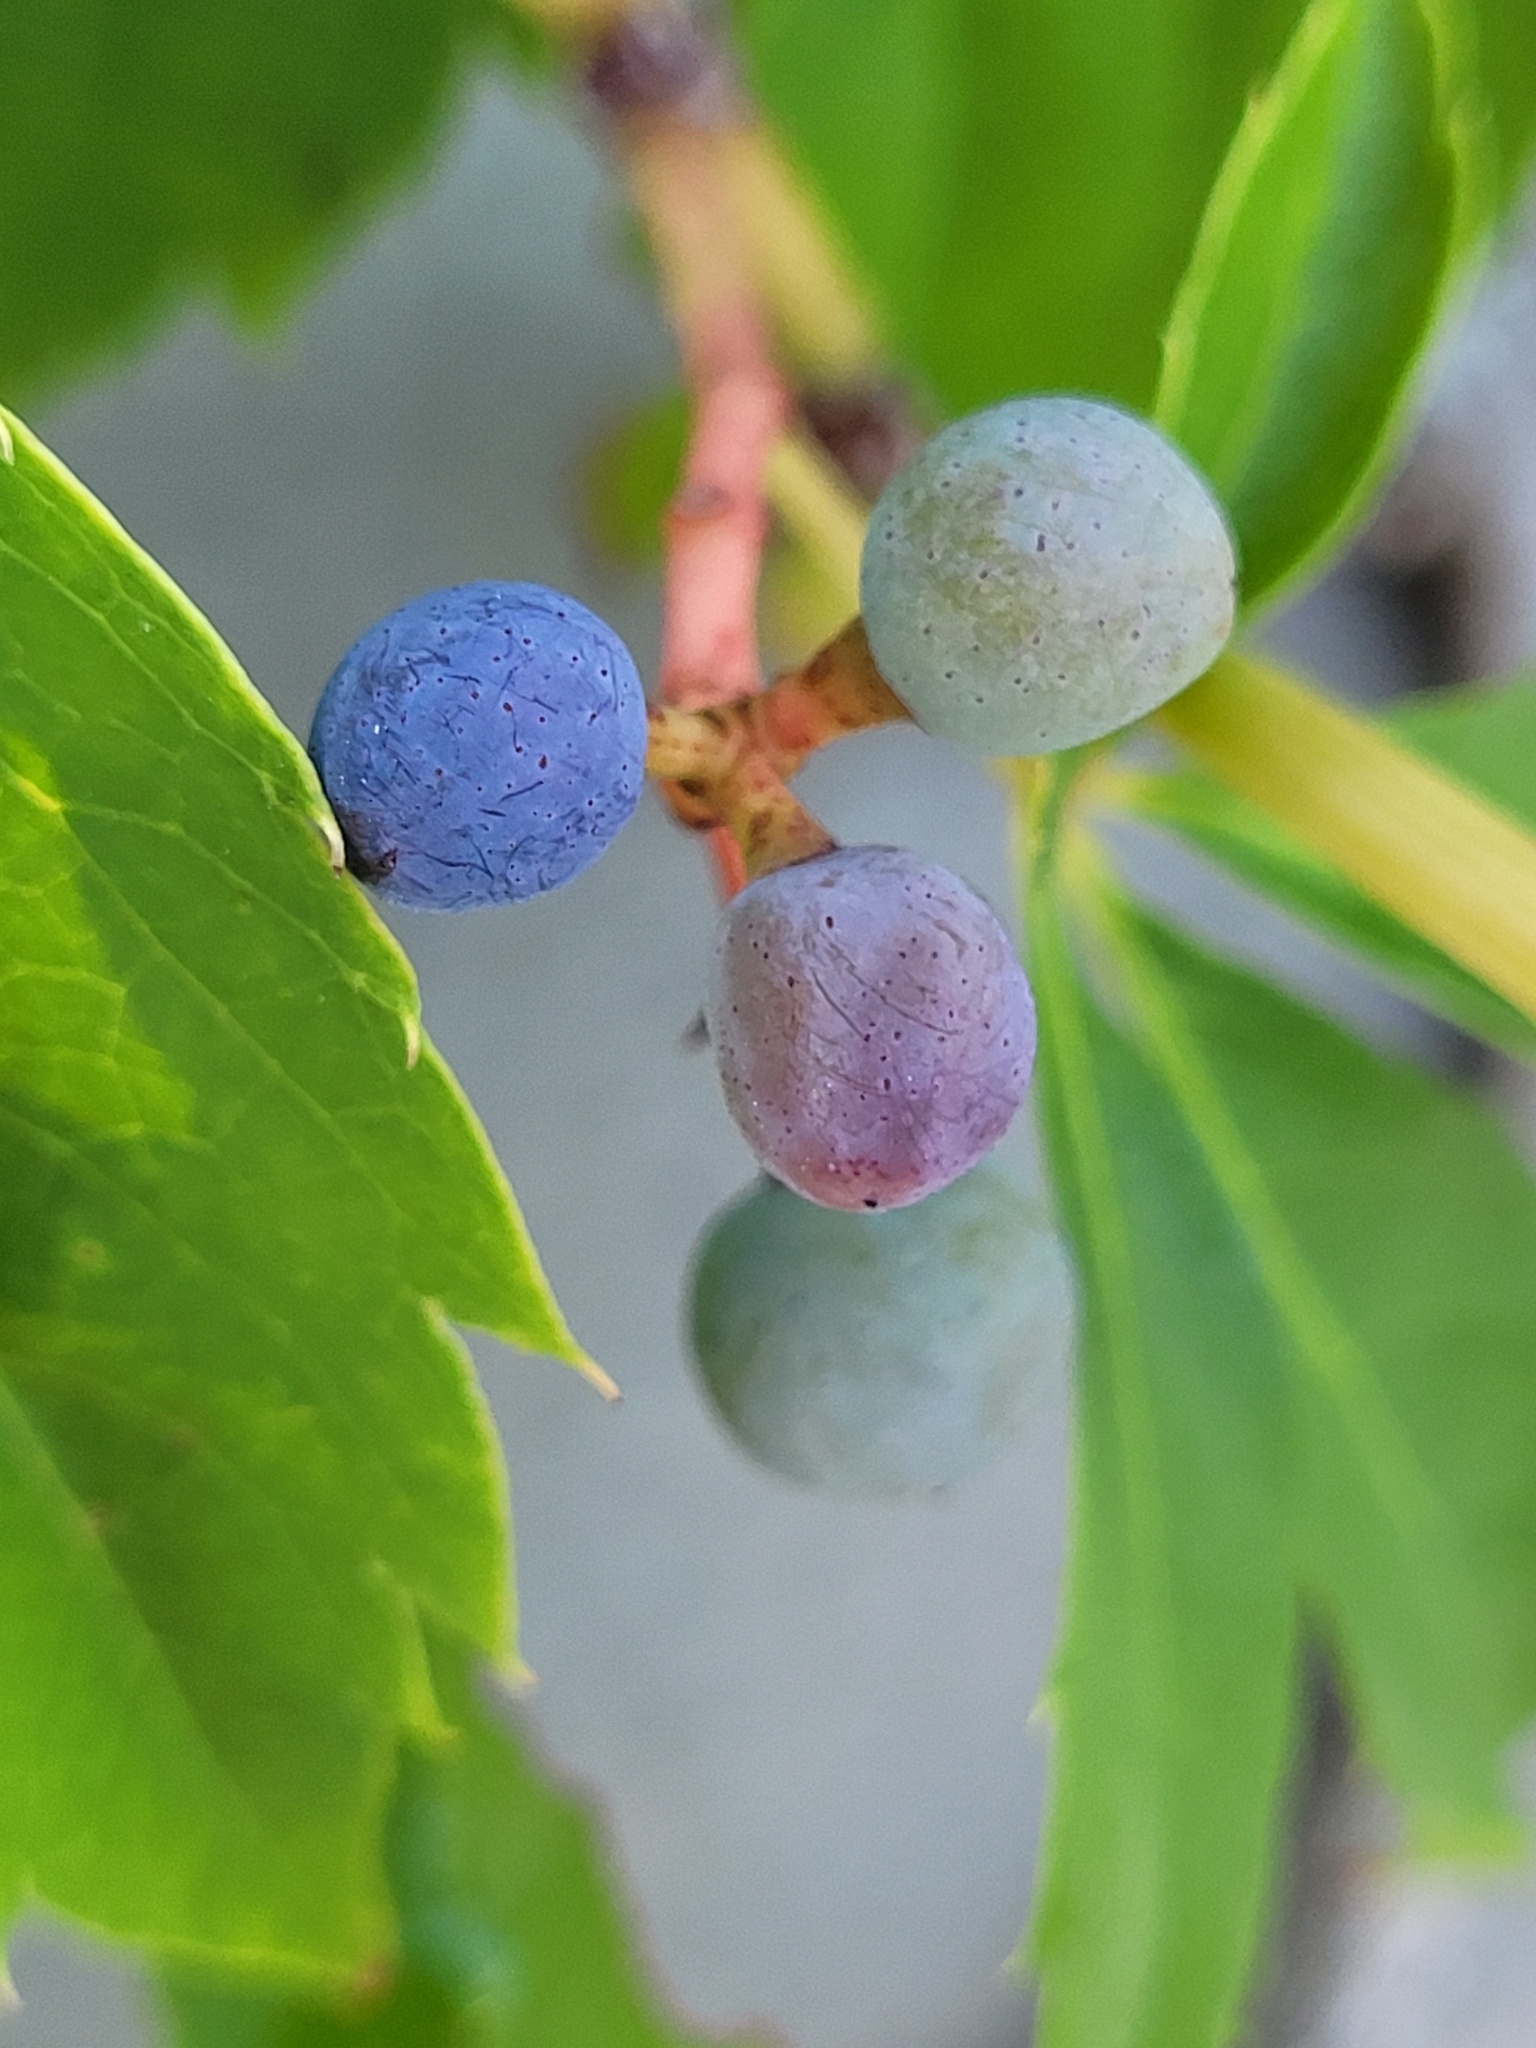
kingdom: Plantae
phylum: Tracheophyta
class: Magnoliopsida
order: Vitales
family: Vitaceae
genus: Parthenocissus
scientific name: Parthenocissus quinquefolia
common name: Virginia-creeper
